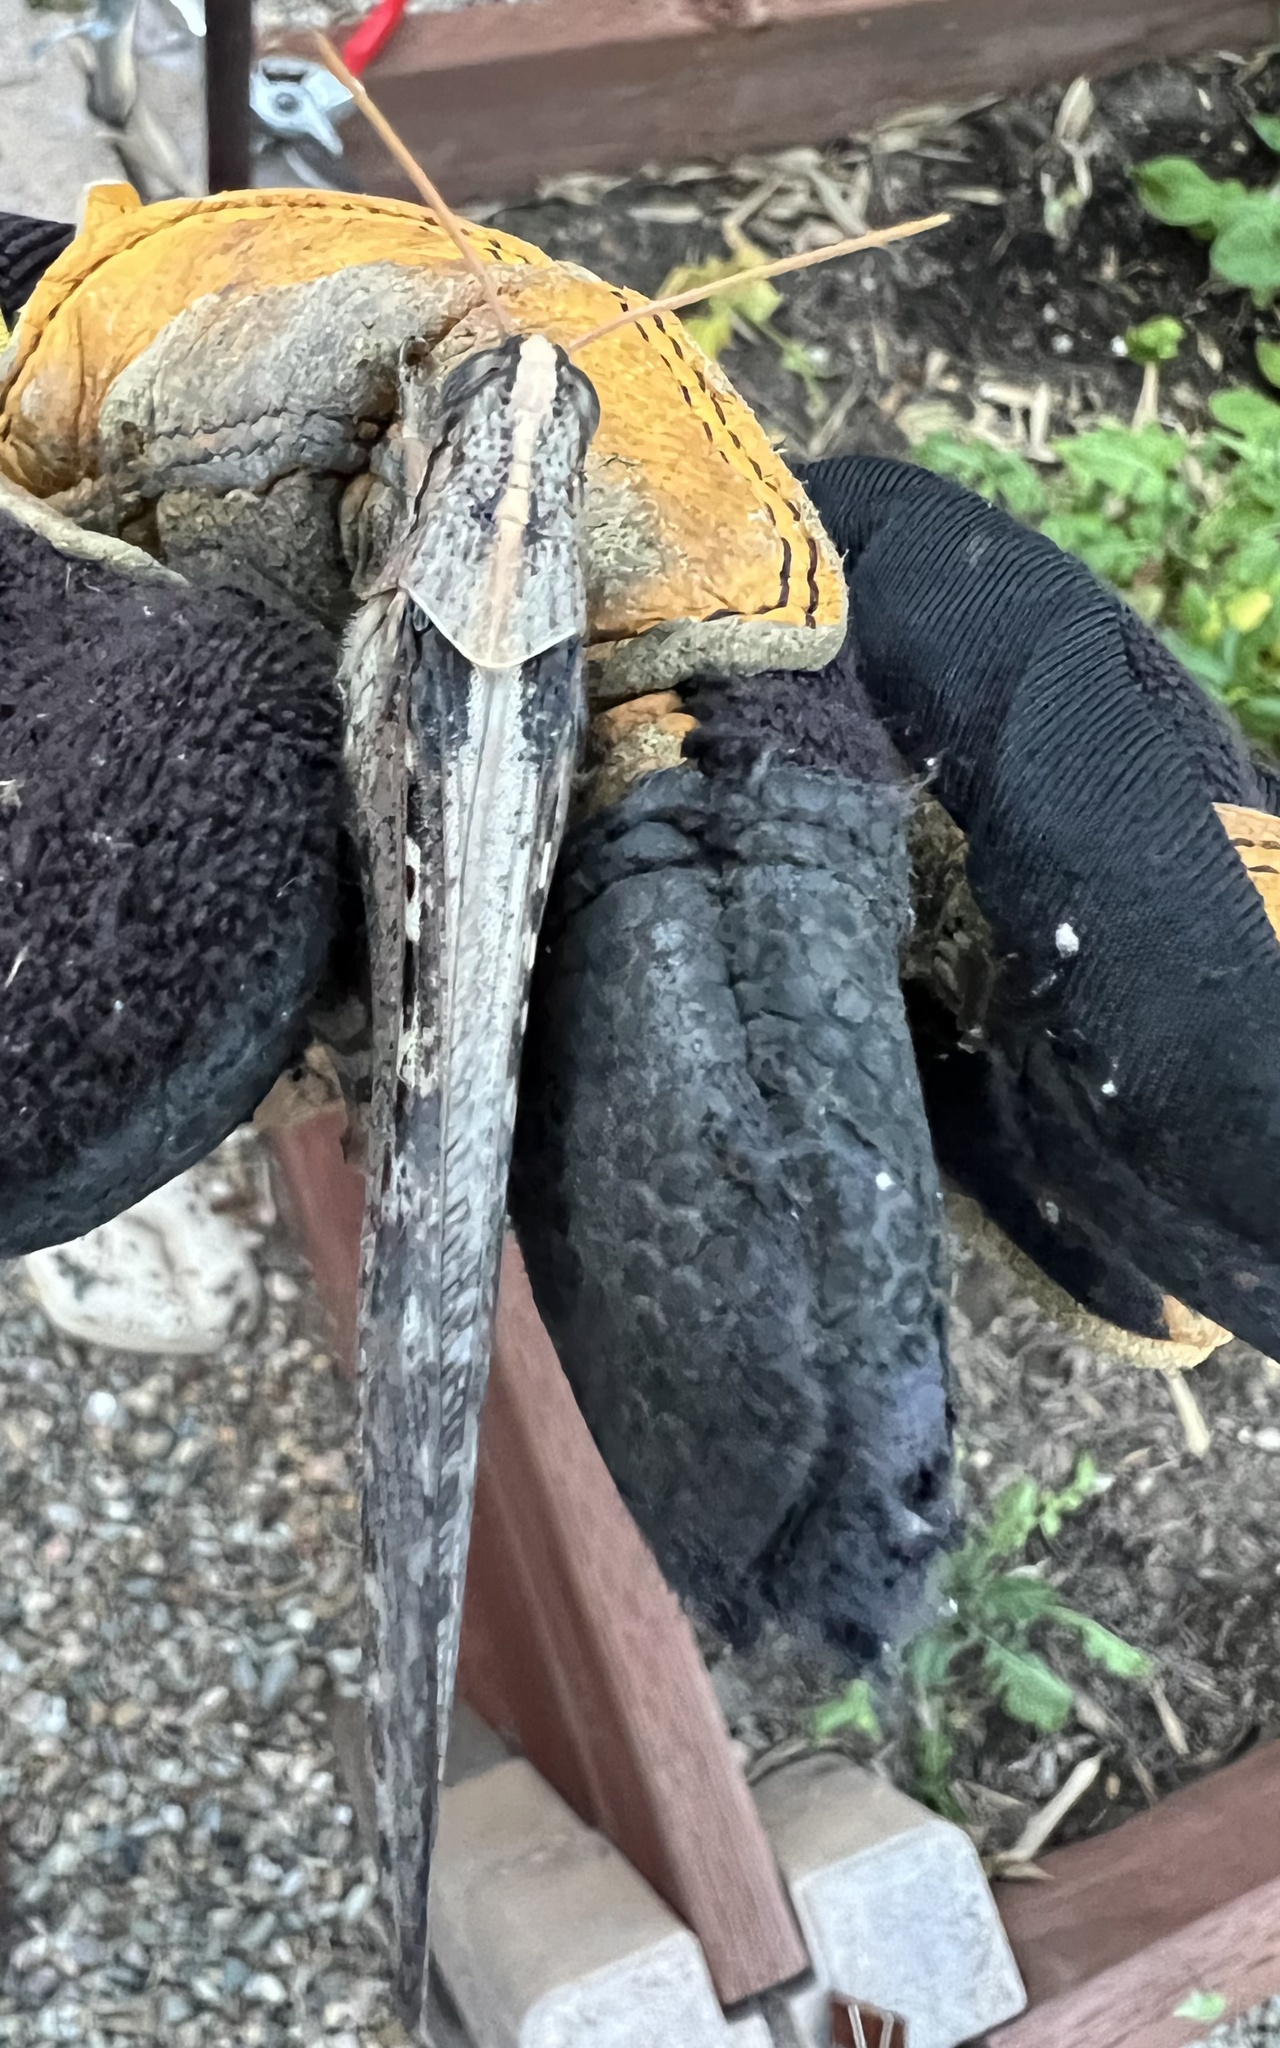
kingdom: Animalia
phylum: Arthropoda
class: Insecta
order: Orthoptera
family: Acrididae
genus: Schistocerca
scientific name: Schistocerca nitens
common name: Vagrant grasshopper
